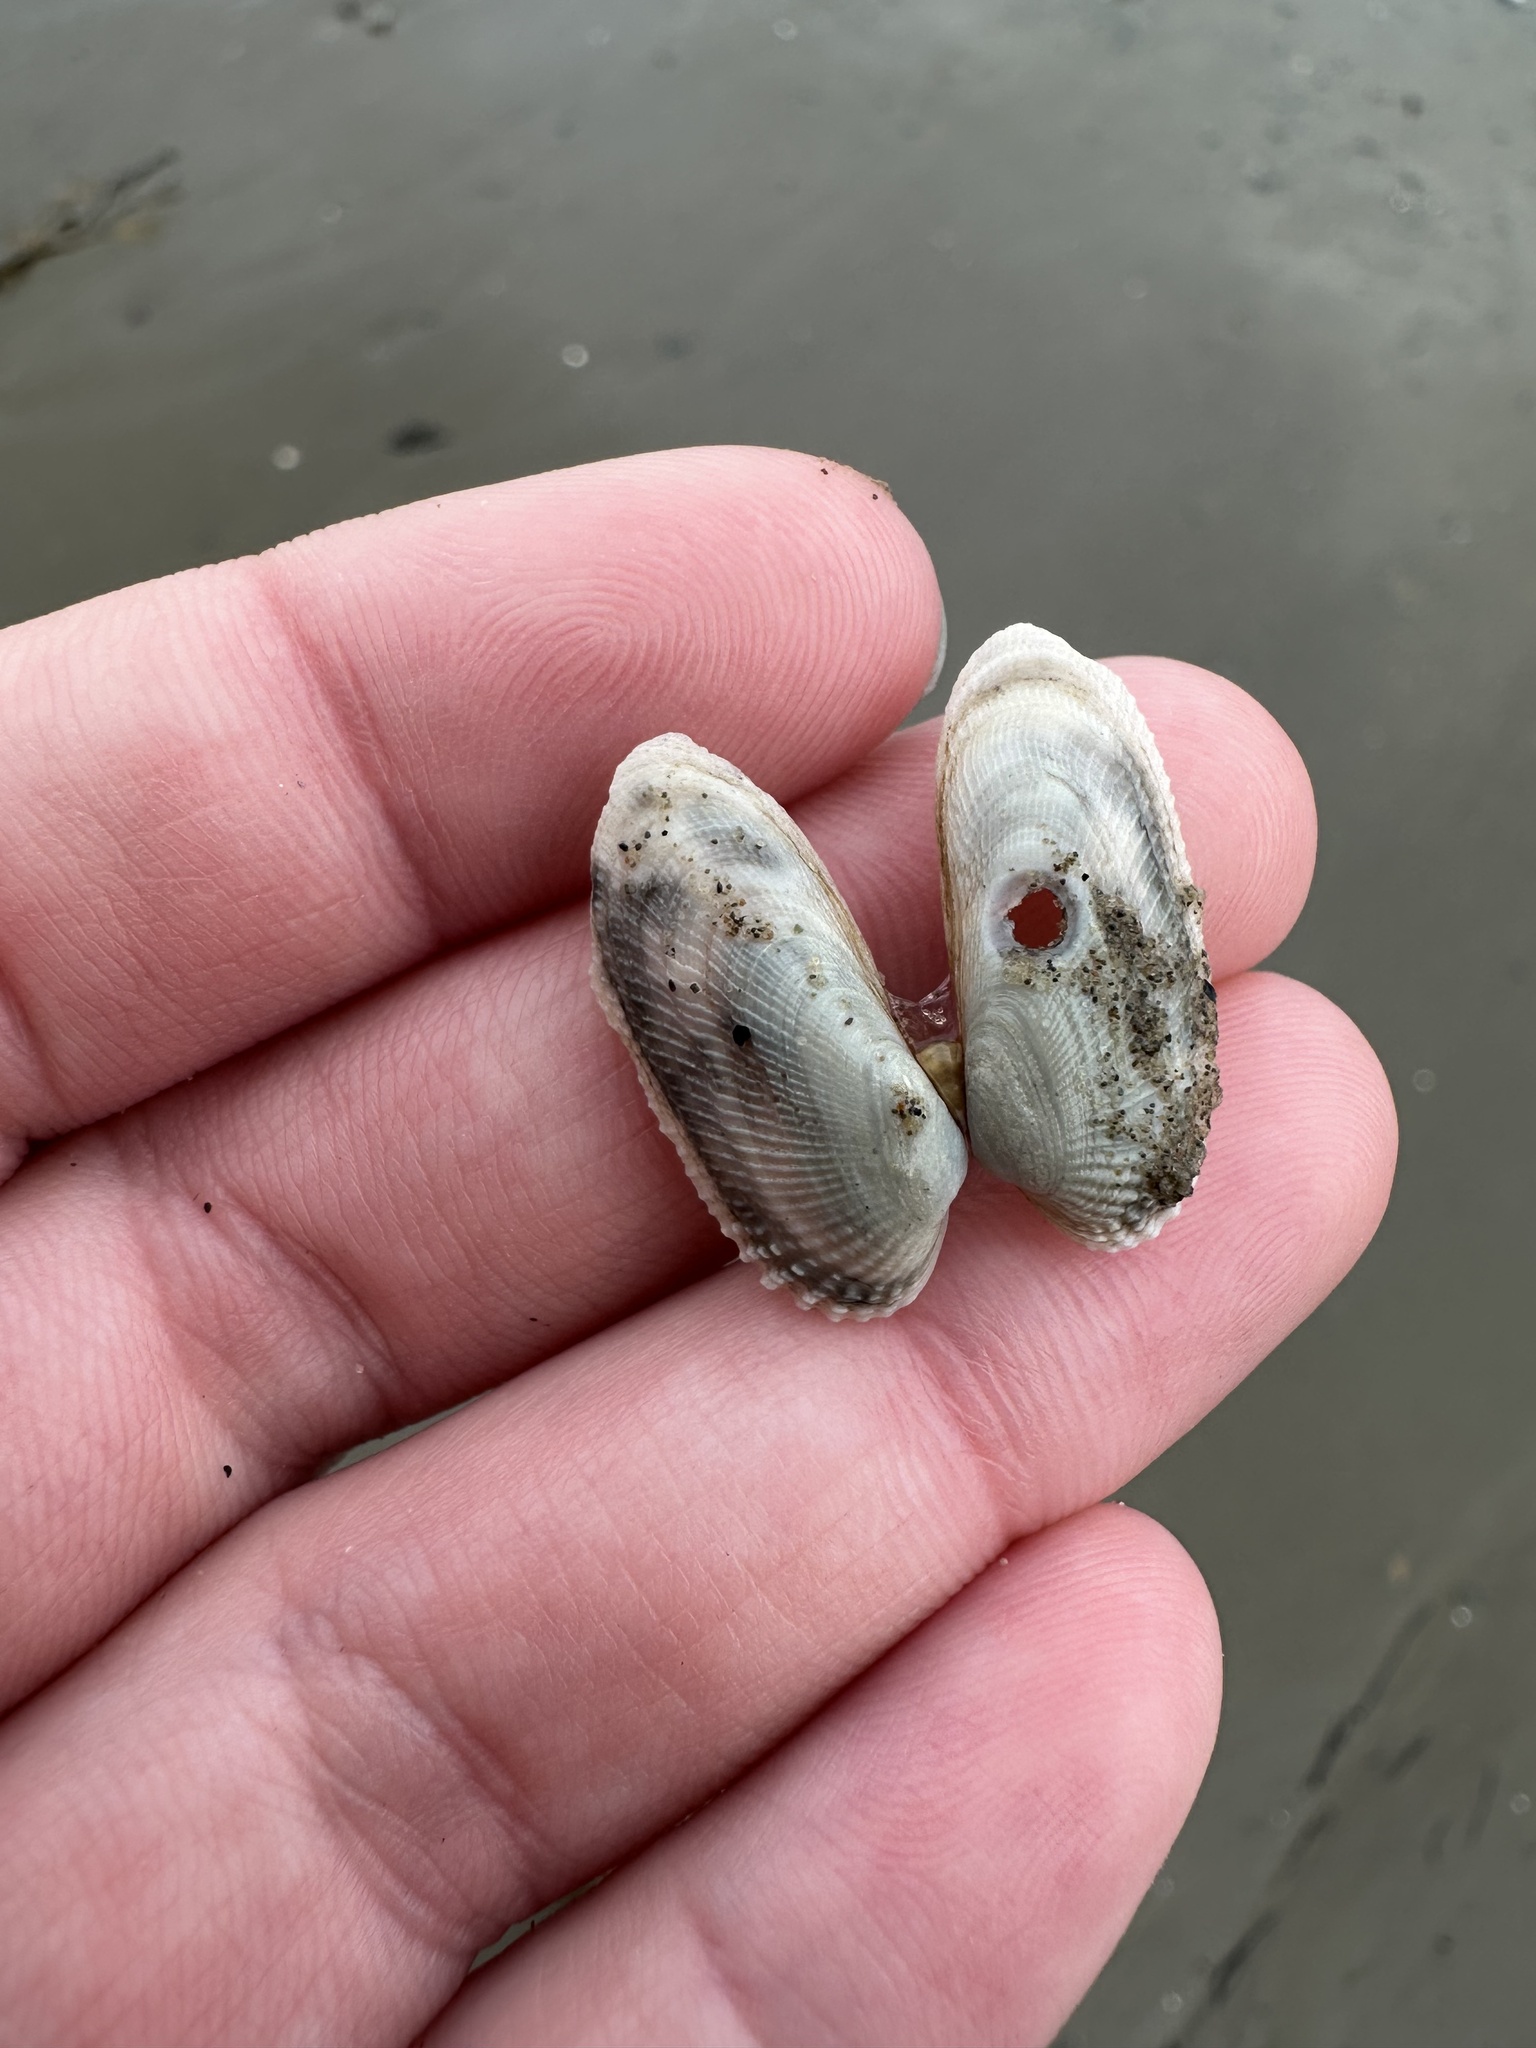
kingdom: Animalia
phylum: Mollusca
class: Bivalvia
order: Venerida
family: Veneridae
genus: Petricolaria
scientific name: Petricolaria pholadiformis
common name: American piddock
